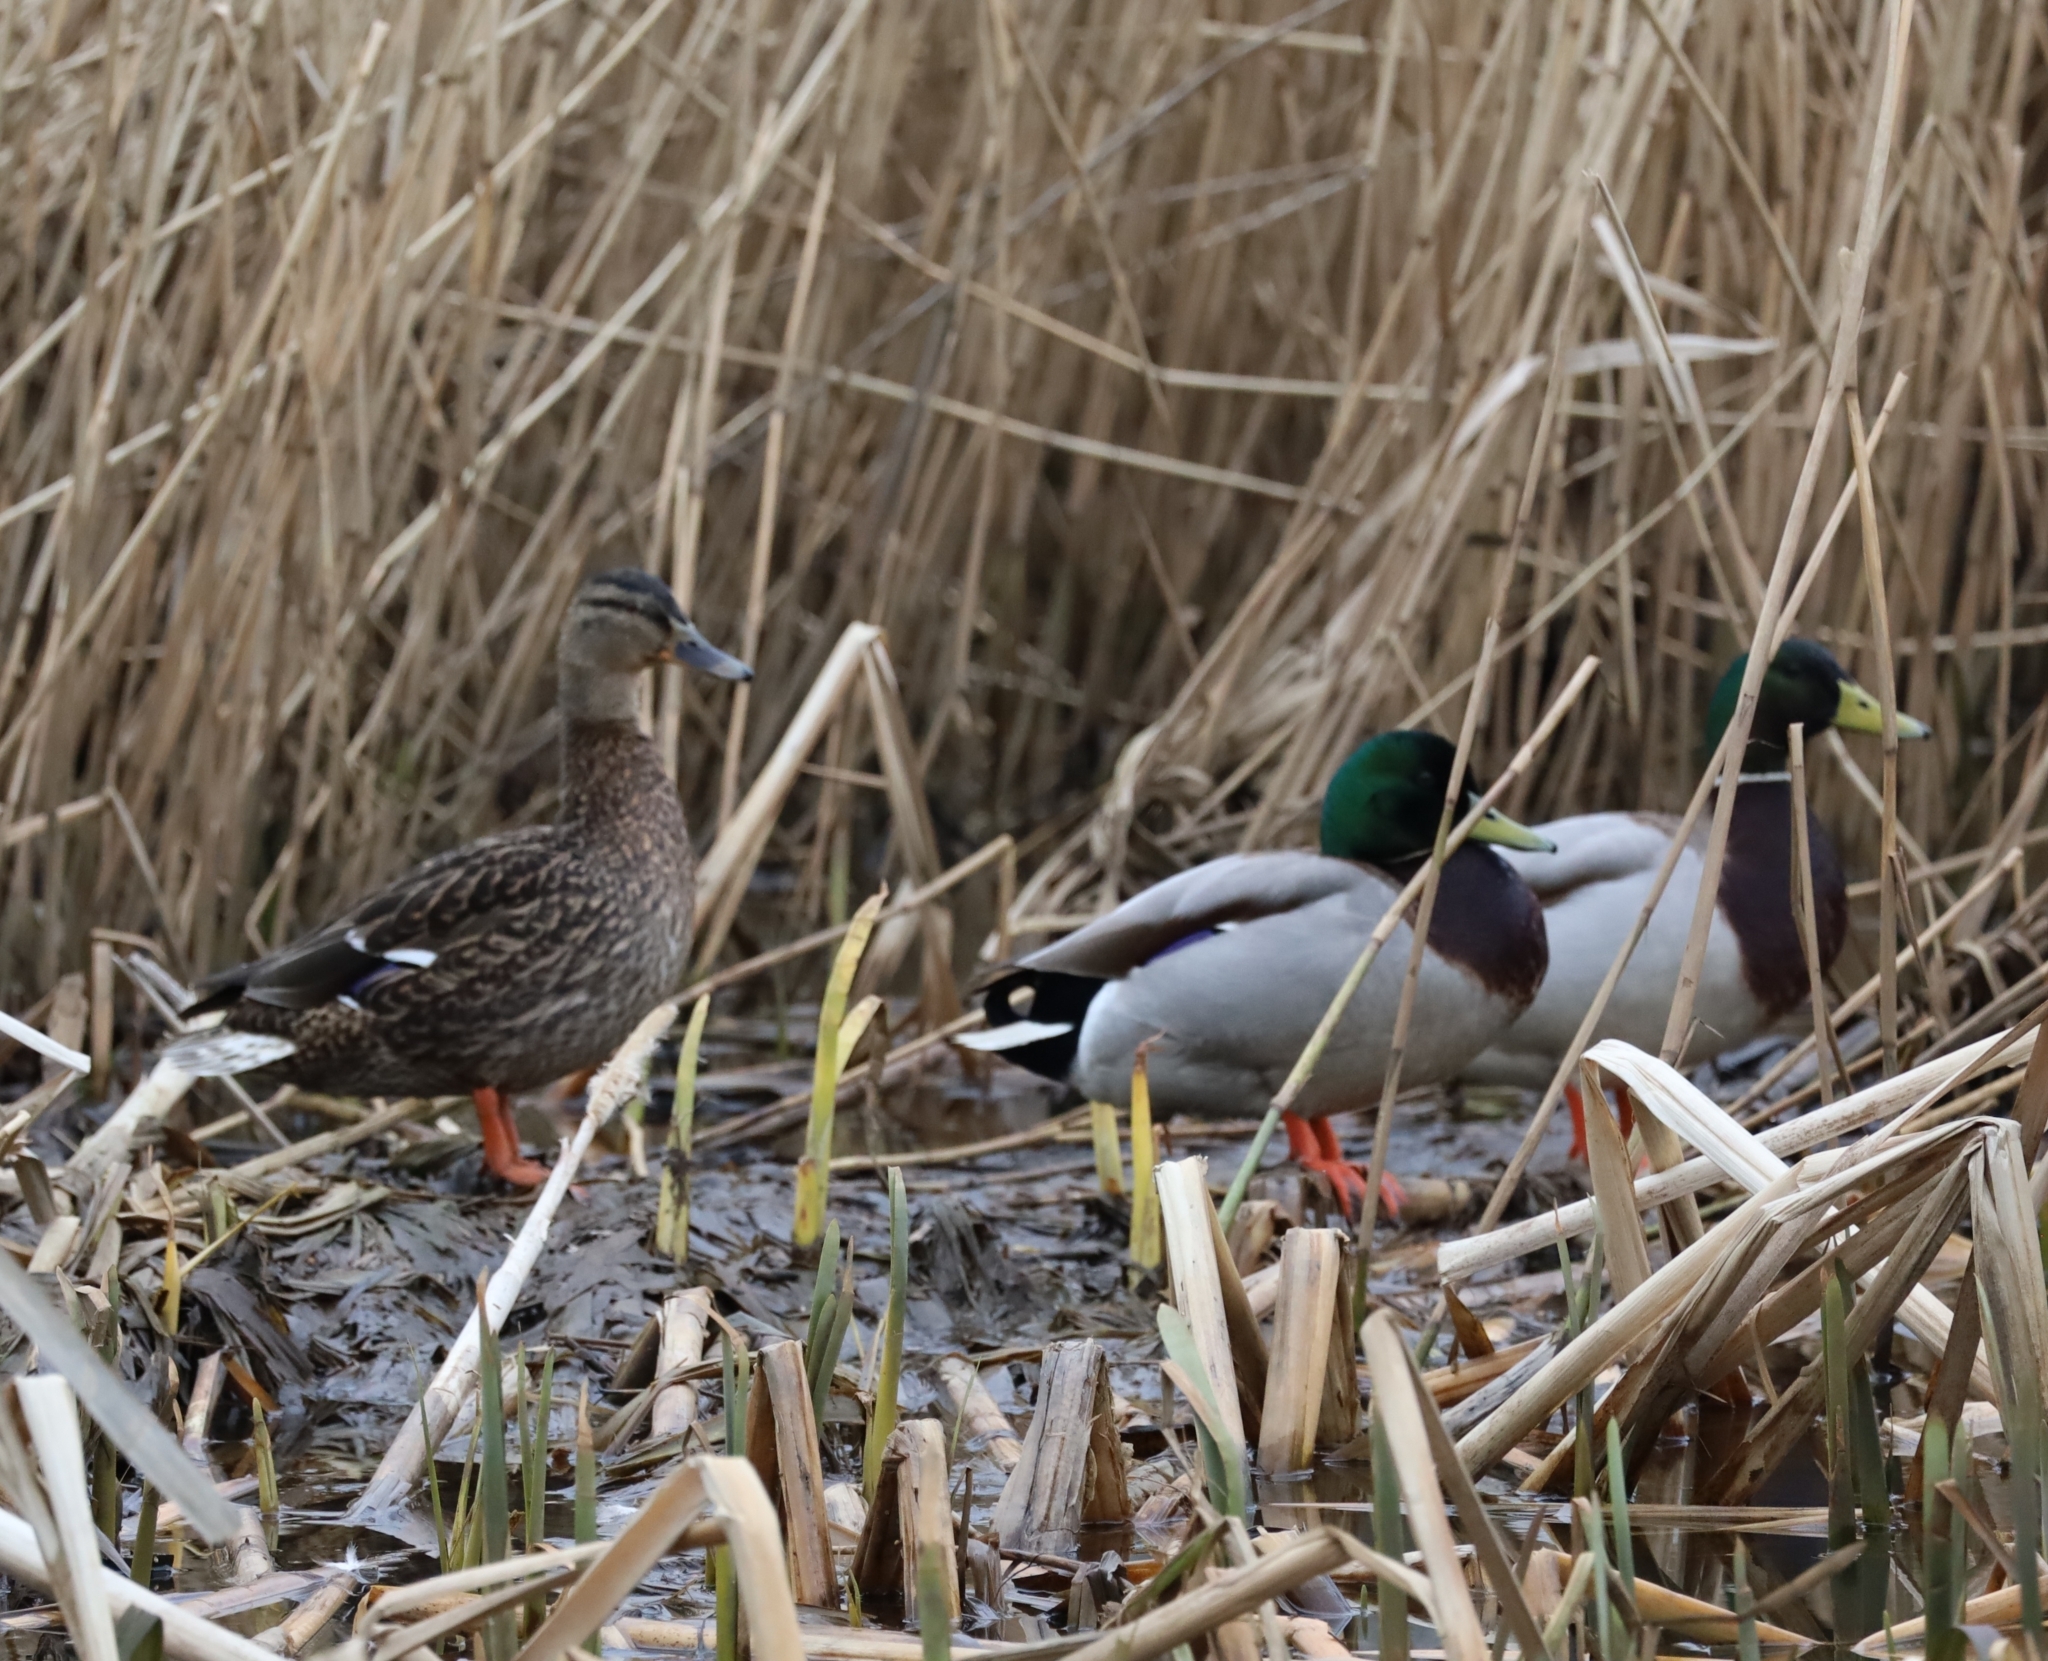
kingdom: Animalia
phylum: Chordata
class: Aves
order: Anseriformes
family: Anatidae
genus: Anas
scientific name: Anas platyrhynchos
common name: Mallard
